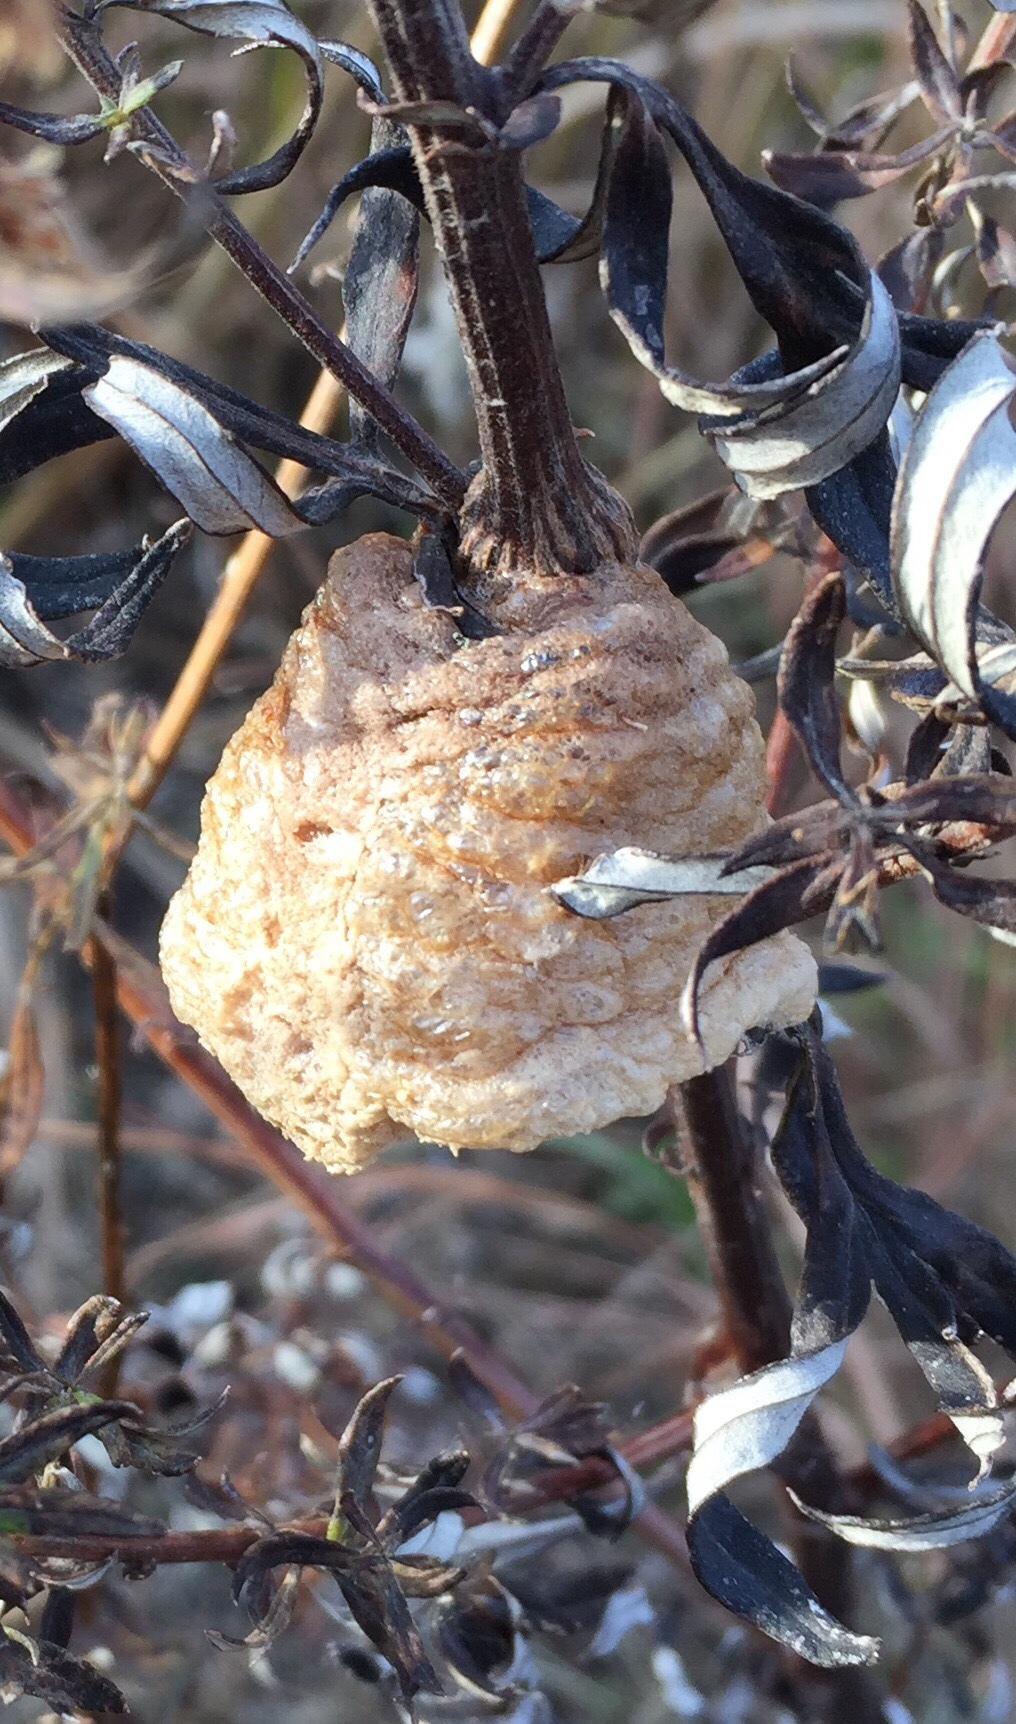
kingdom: Animalia
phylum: Arthropoda
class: Insecta
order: Mantodea
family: Mantidae
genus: Tenodera
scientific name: Tenodera sinensis
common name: Chinese mantis
